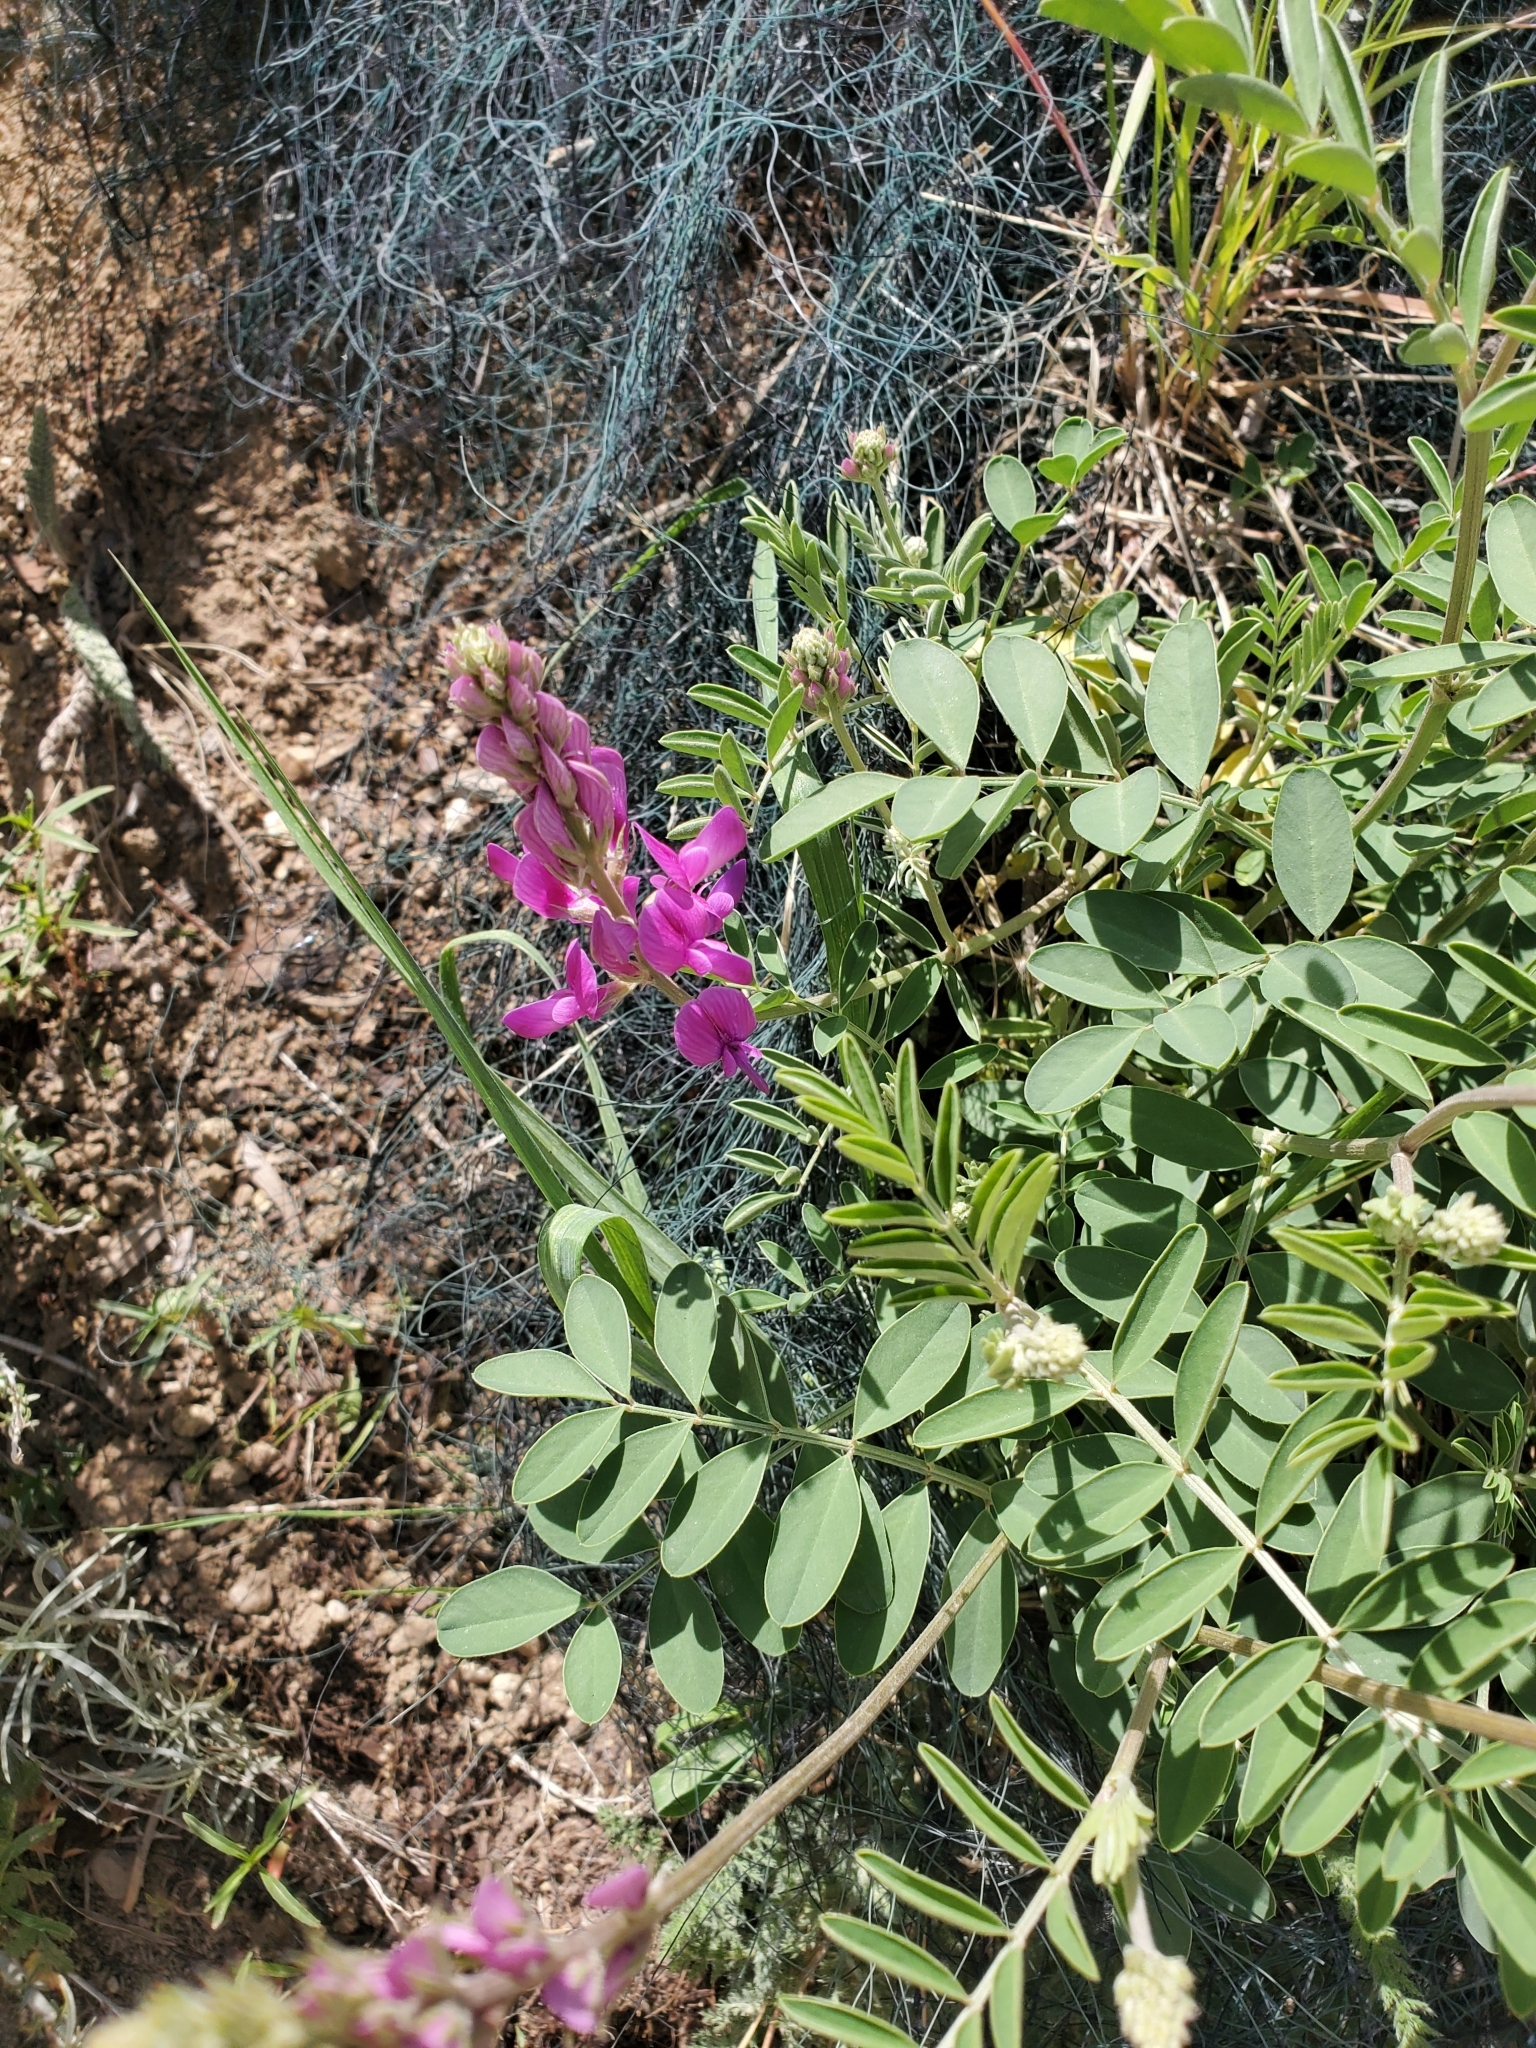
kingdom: Plantae
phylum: Tracheophyta
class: Magnoliopsida
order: Fabales
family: Fabaceae
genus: Hedysarum
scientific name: Hedysarum boreale
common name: Northern sweet-vetch
